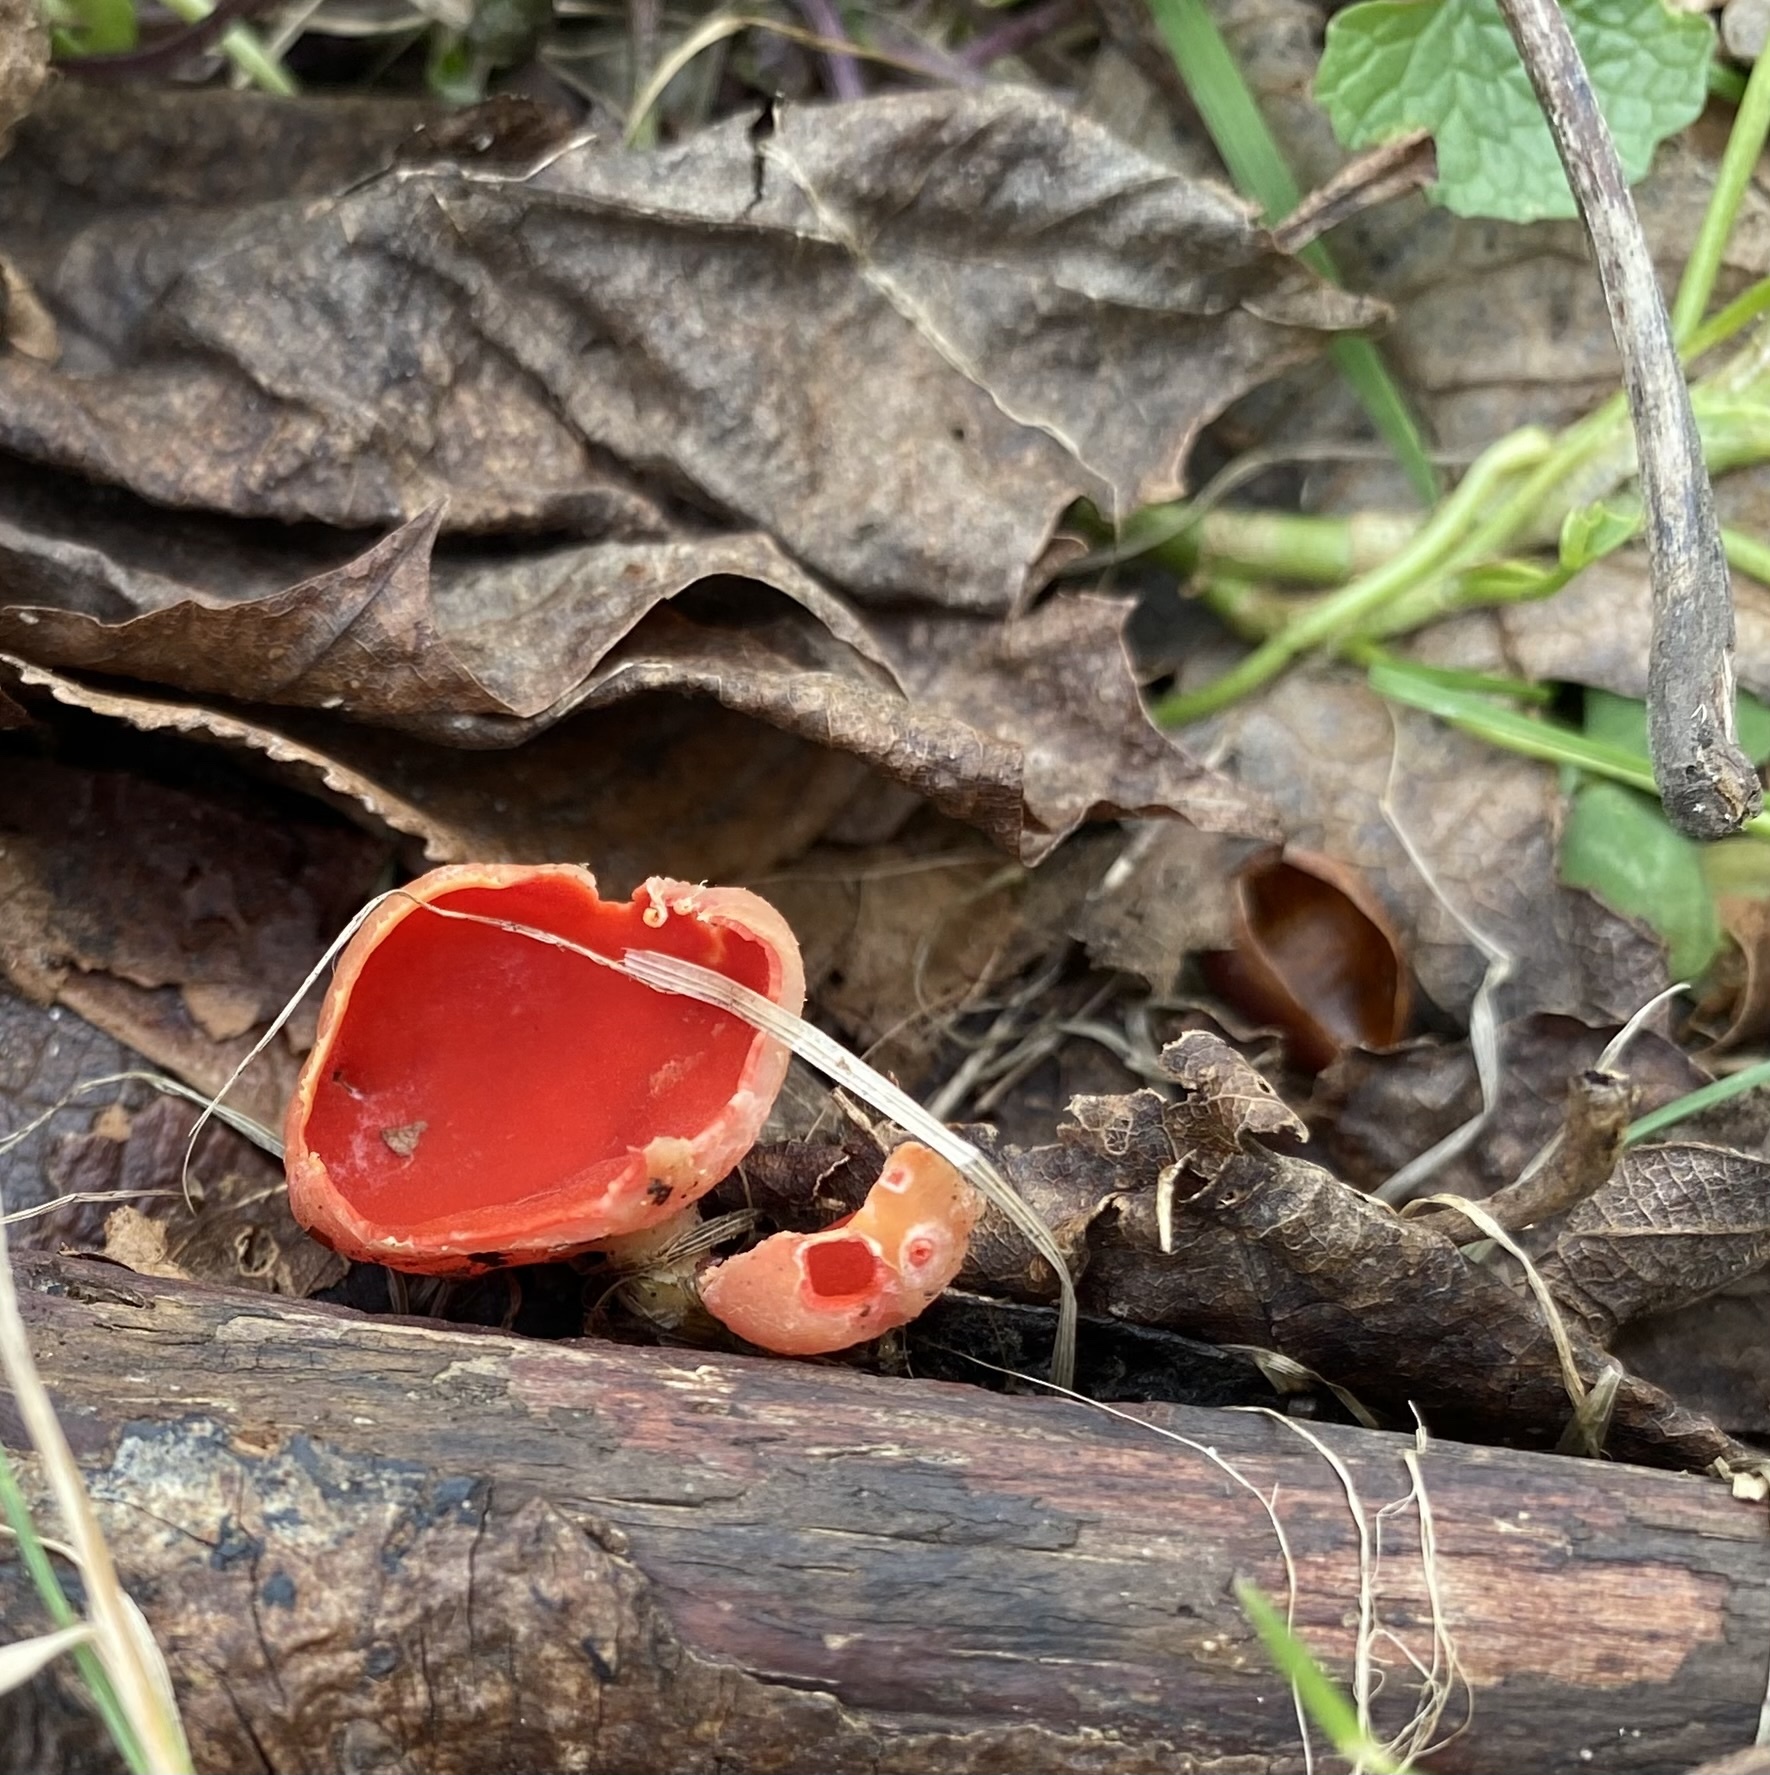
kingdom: Fungi
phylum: Ascomycota
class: Pezizomycetes
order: Pezizales
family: Sarcoscyphaceae
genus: Sarcoscypha
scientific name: Sarcoscypha
